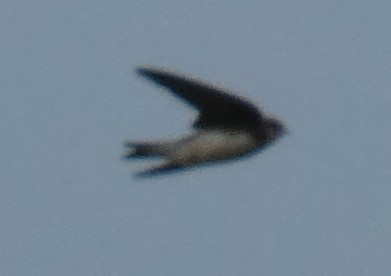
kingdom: Animalia
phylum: Chordata
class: Aves
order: Passeriformes
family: Hirundinidae
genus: Riparia
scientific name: Riparia riparia
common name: Sand martin
